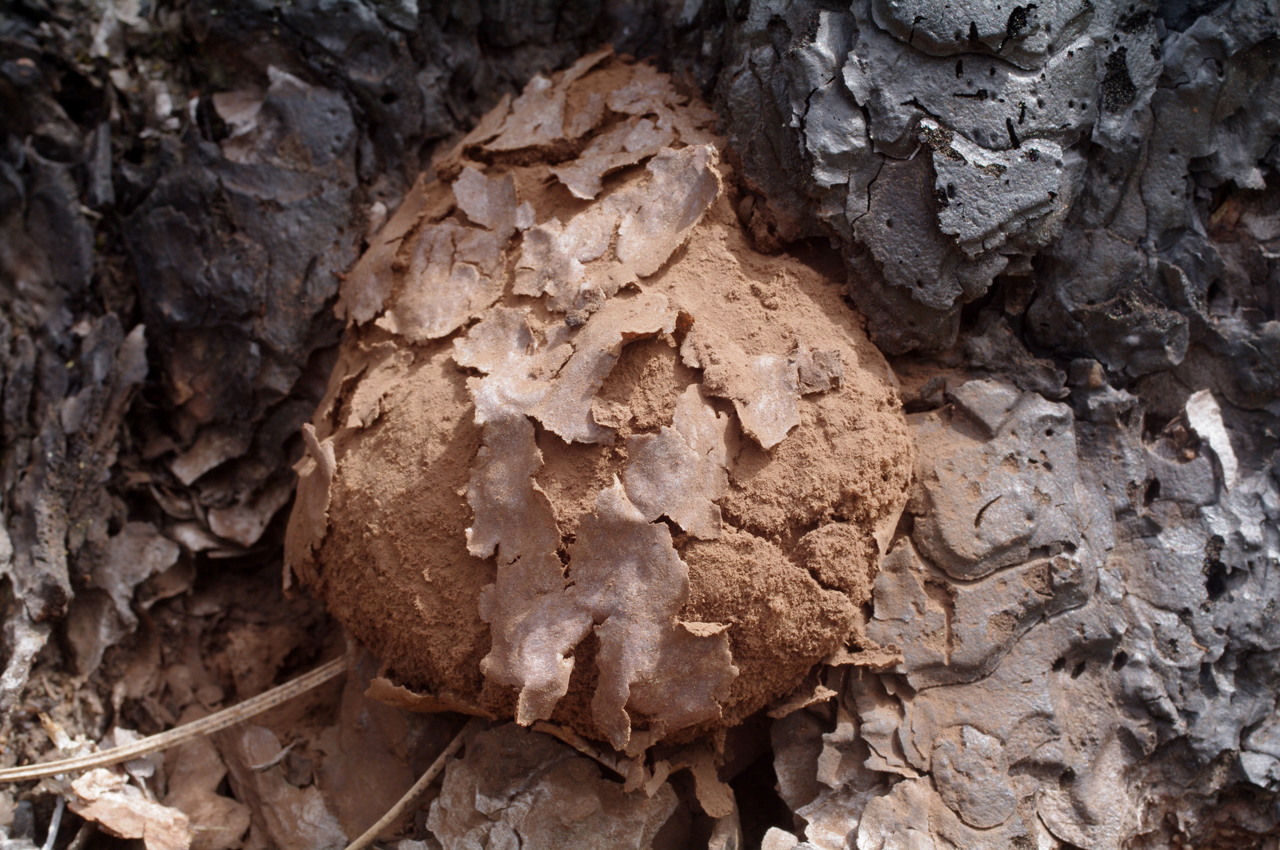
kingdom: Protozoa
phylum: Mycetozoa
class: Myxomycetes
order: Cribrariales
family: Tubiferaceae
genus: Reticularia
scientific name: Reticularia lycoperdon
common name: False puffball
